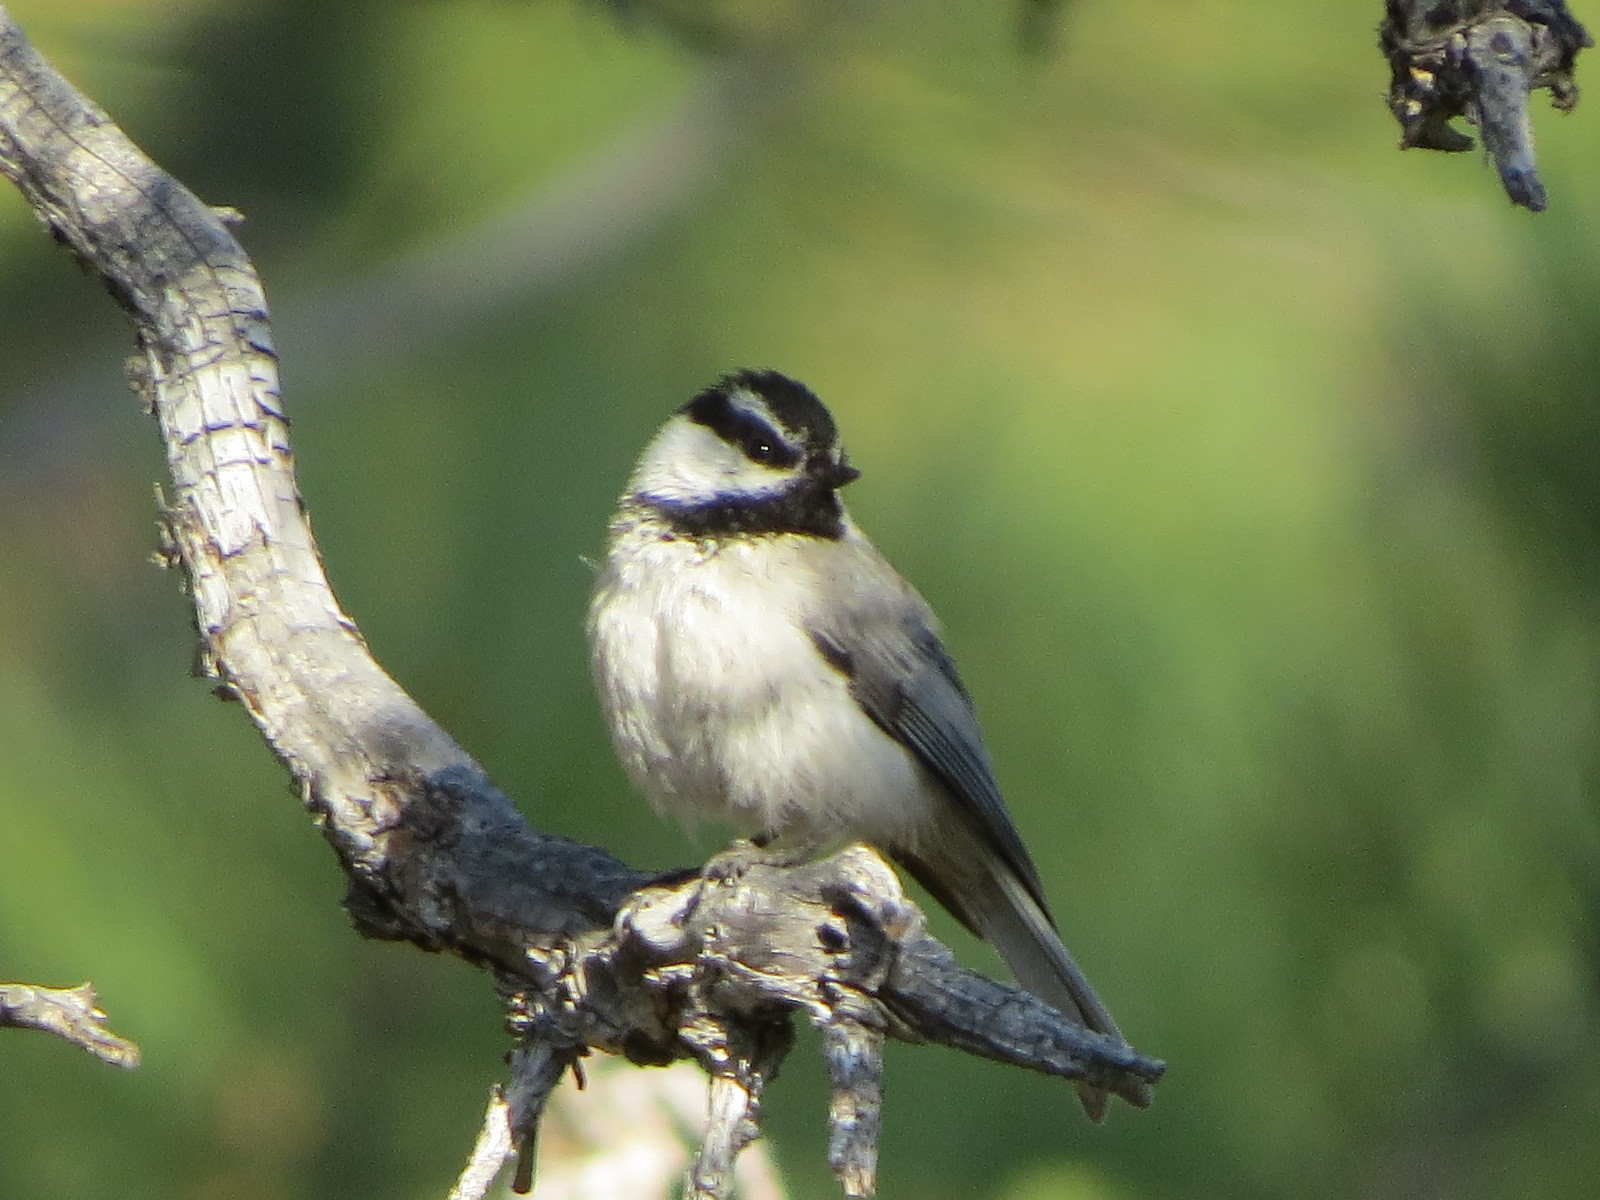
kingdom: Animalia
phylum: Chordata
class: Aves
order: Passeriformes
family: Paridae
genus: Poecile
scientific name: Poecile gambeli
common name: Mountain chickadee
